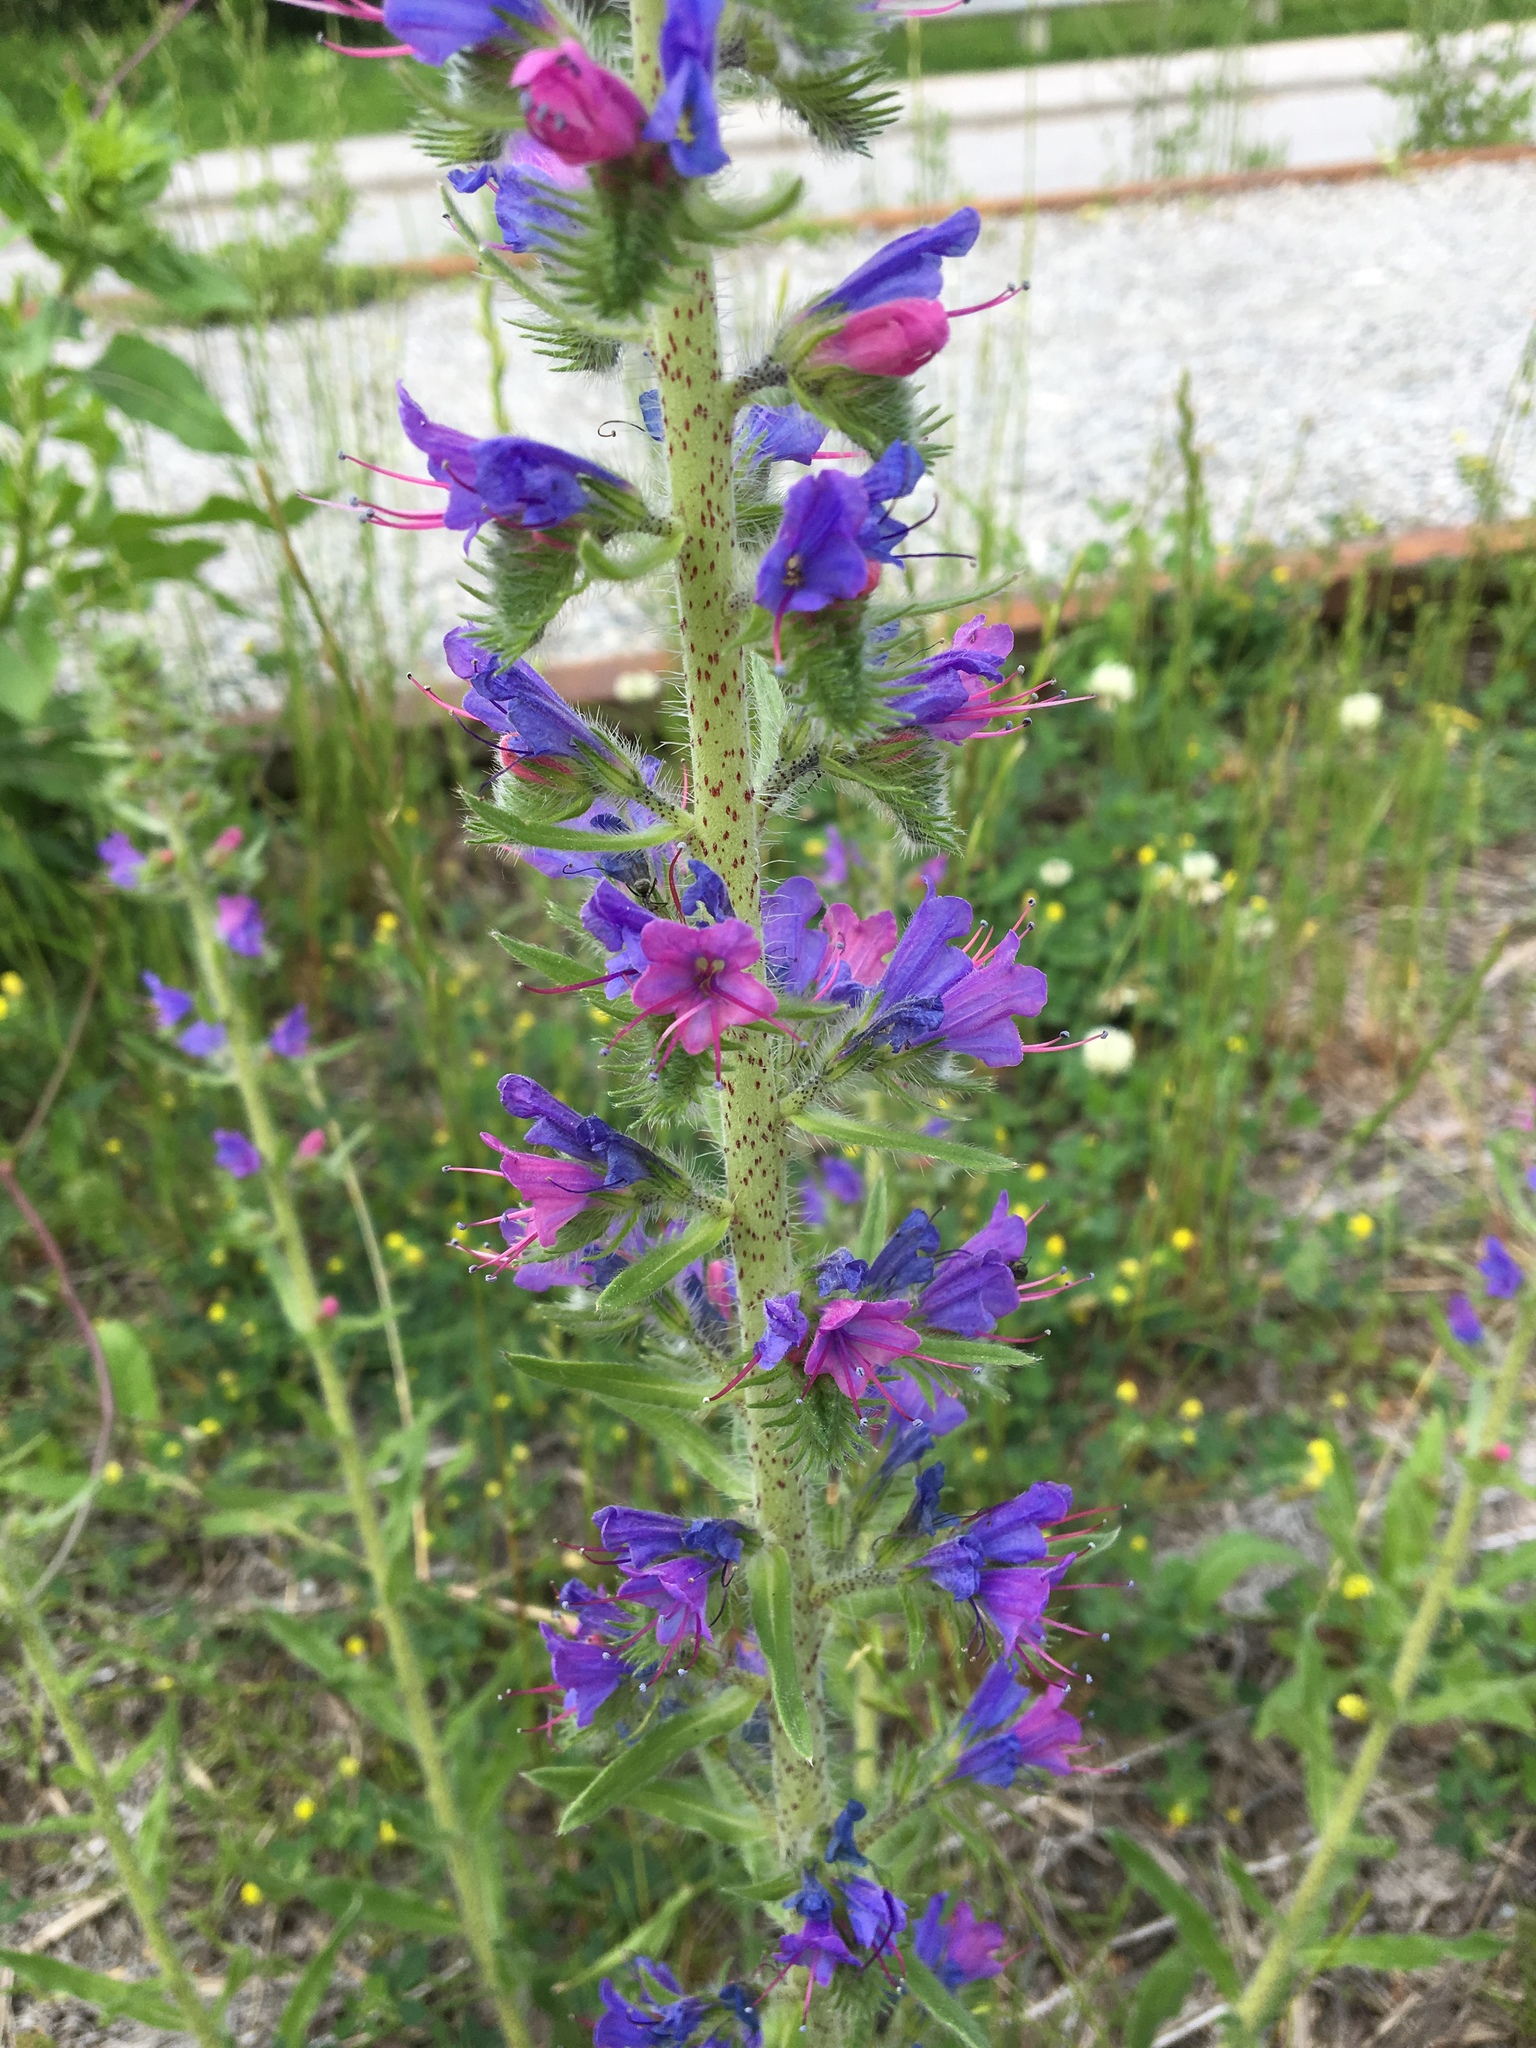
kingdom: Plantae
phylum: Tracheophyta
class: Magnoliopsida
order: Boraginales
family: Boraginaceae
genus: Echium
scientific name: Echium vulgare
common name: Common viper's bugloss
